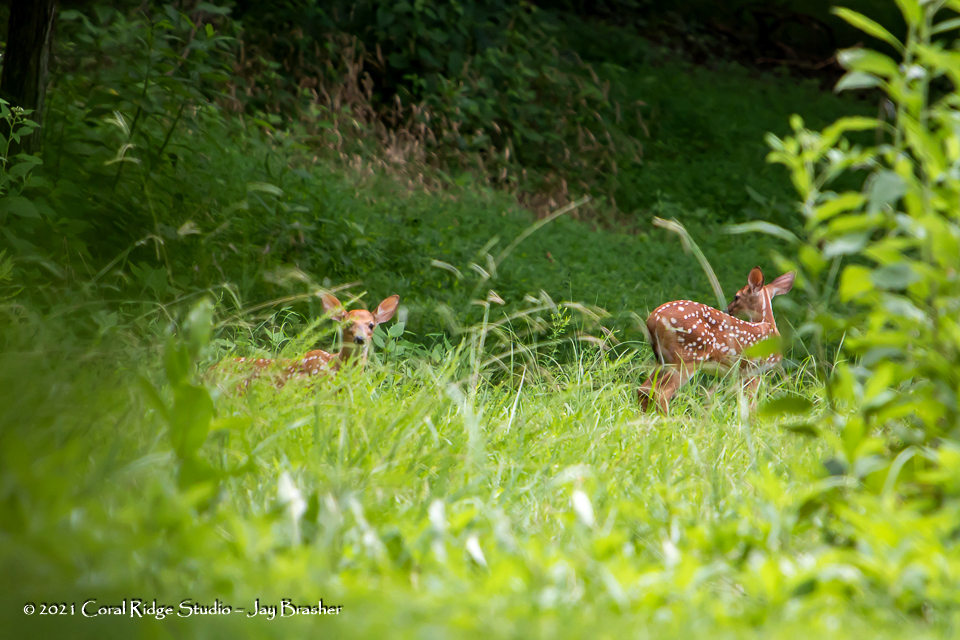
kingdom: Animalia
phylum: Chordata
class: Mammalia
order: Artiodactyla
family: Cervidae
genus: Odocoileus
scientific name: Odocoileus virginianus
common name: White-tailed deer
